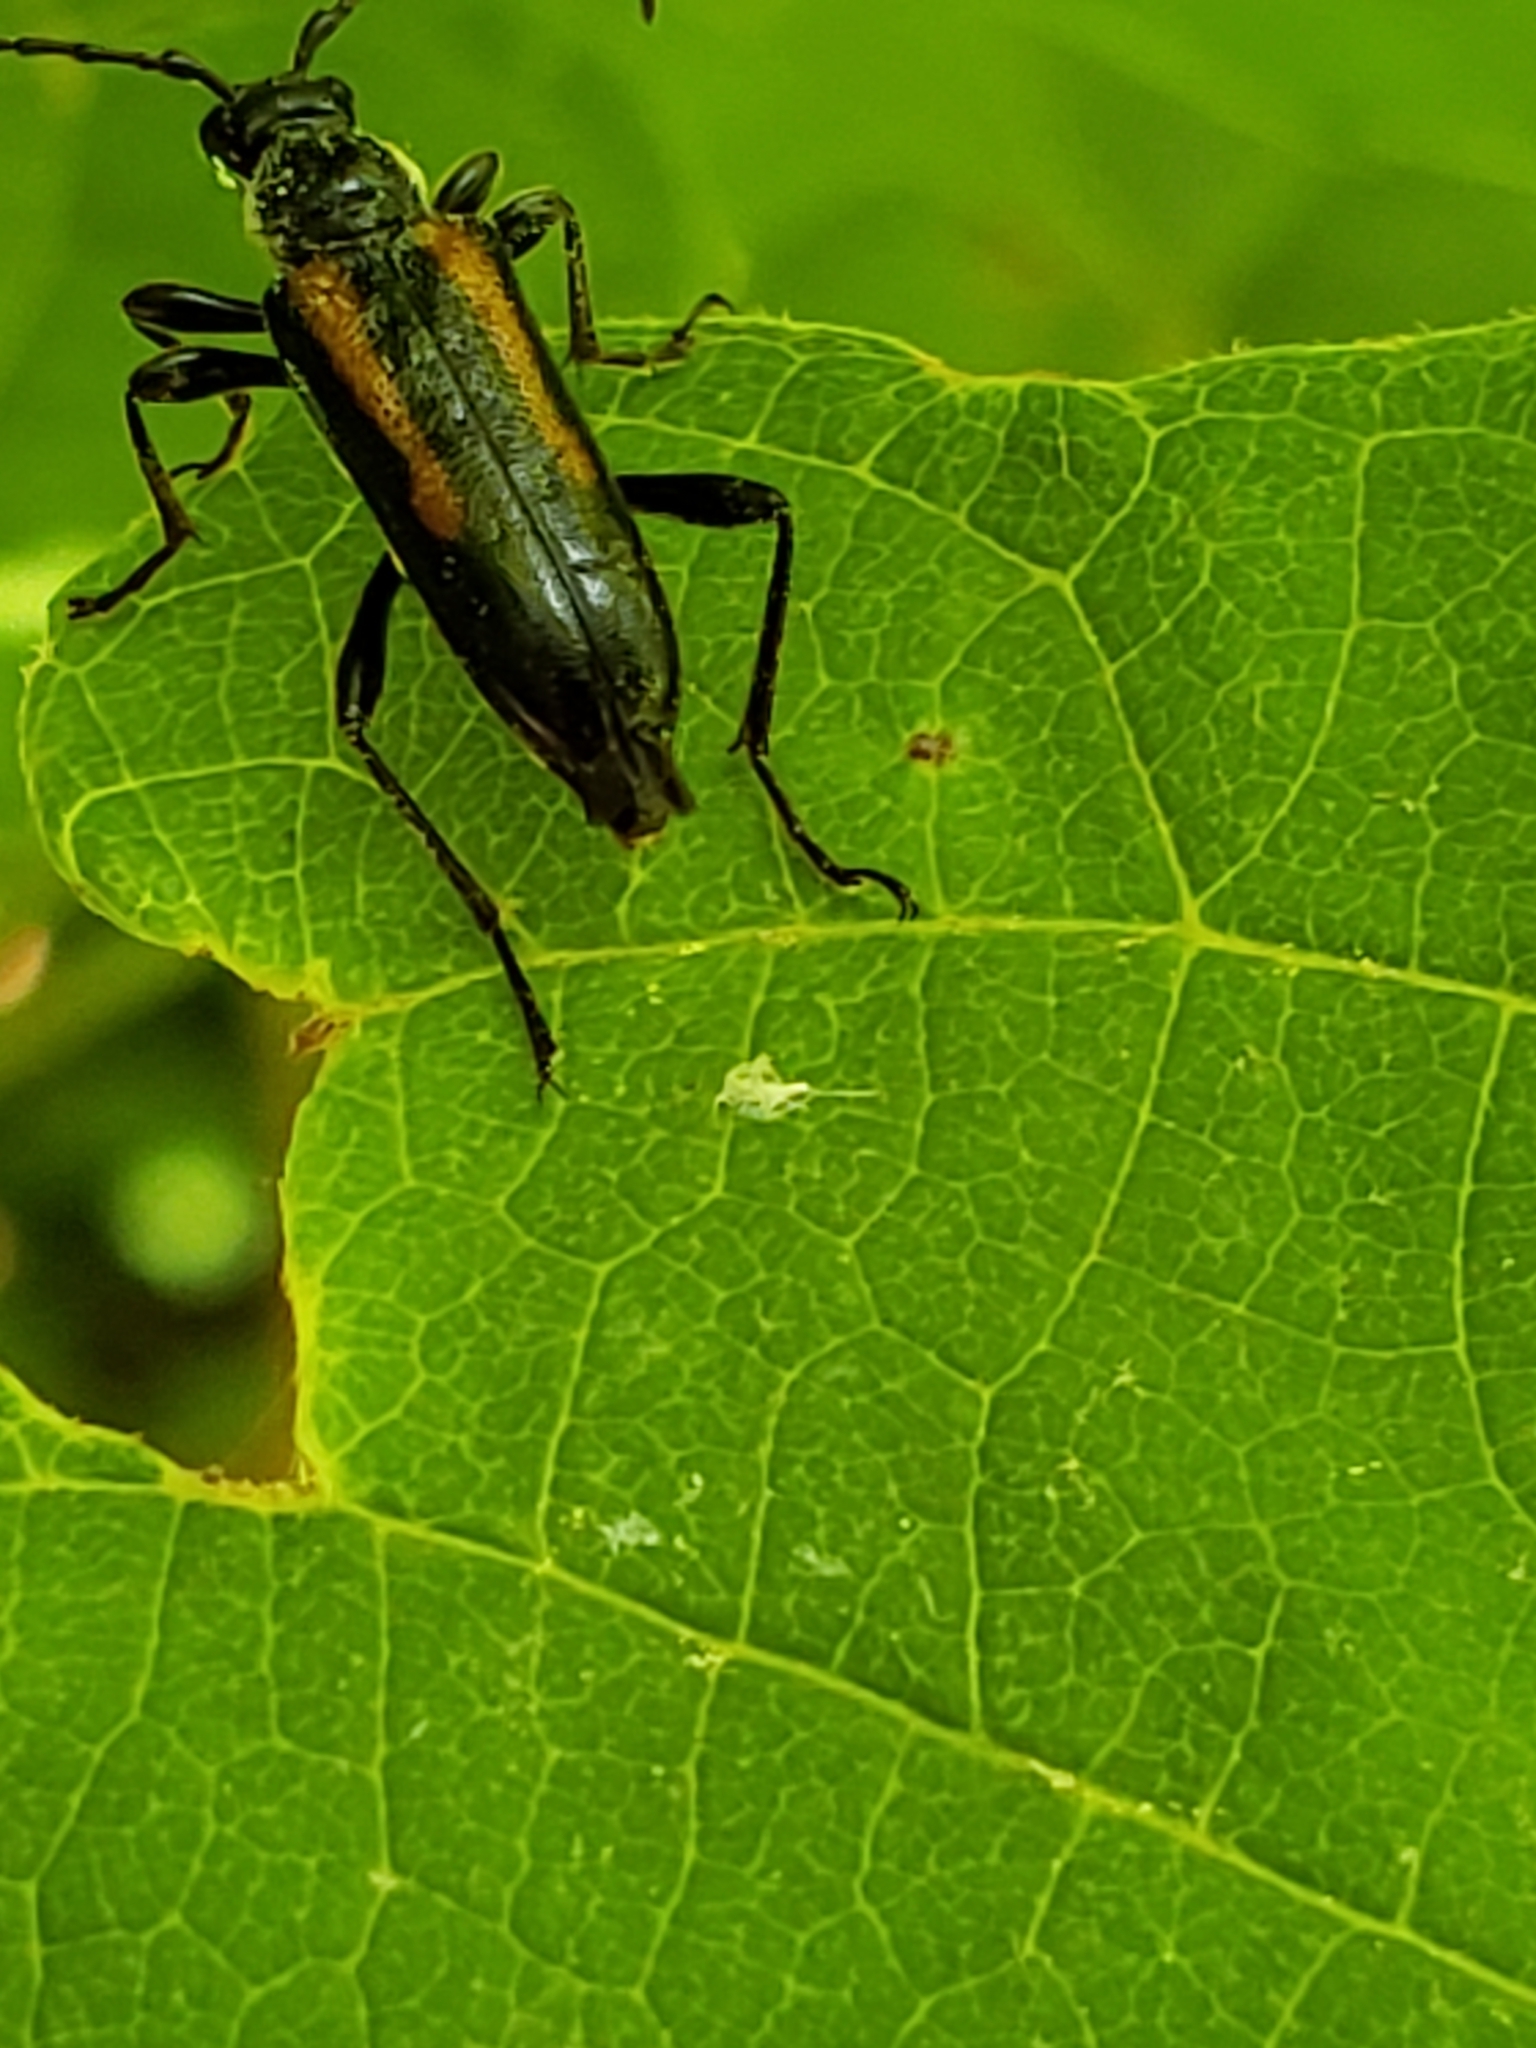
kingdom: Animalia
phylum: Arthropoda
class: Insecta
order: Coleoptera
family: Cerambycidae
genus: Strangalepta
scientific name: Strangalepta abbreviata
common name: Strangalepta flower longhorn beetle
